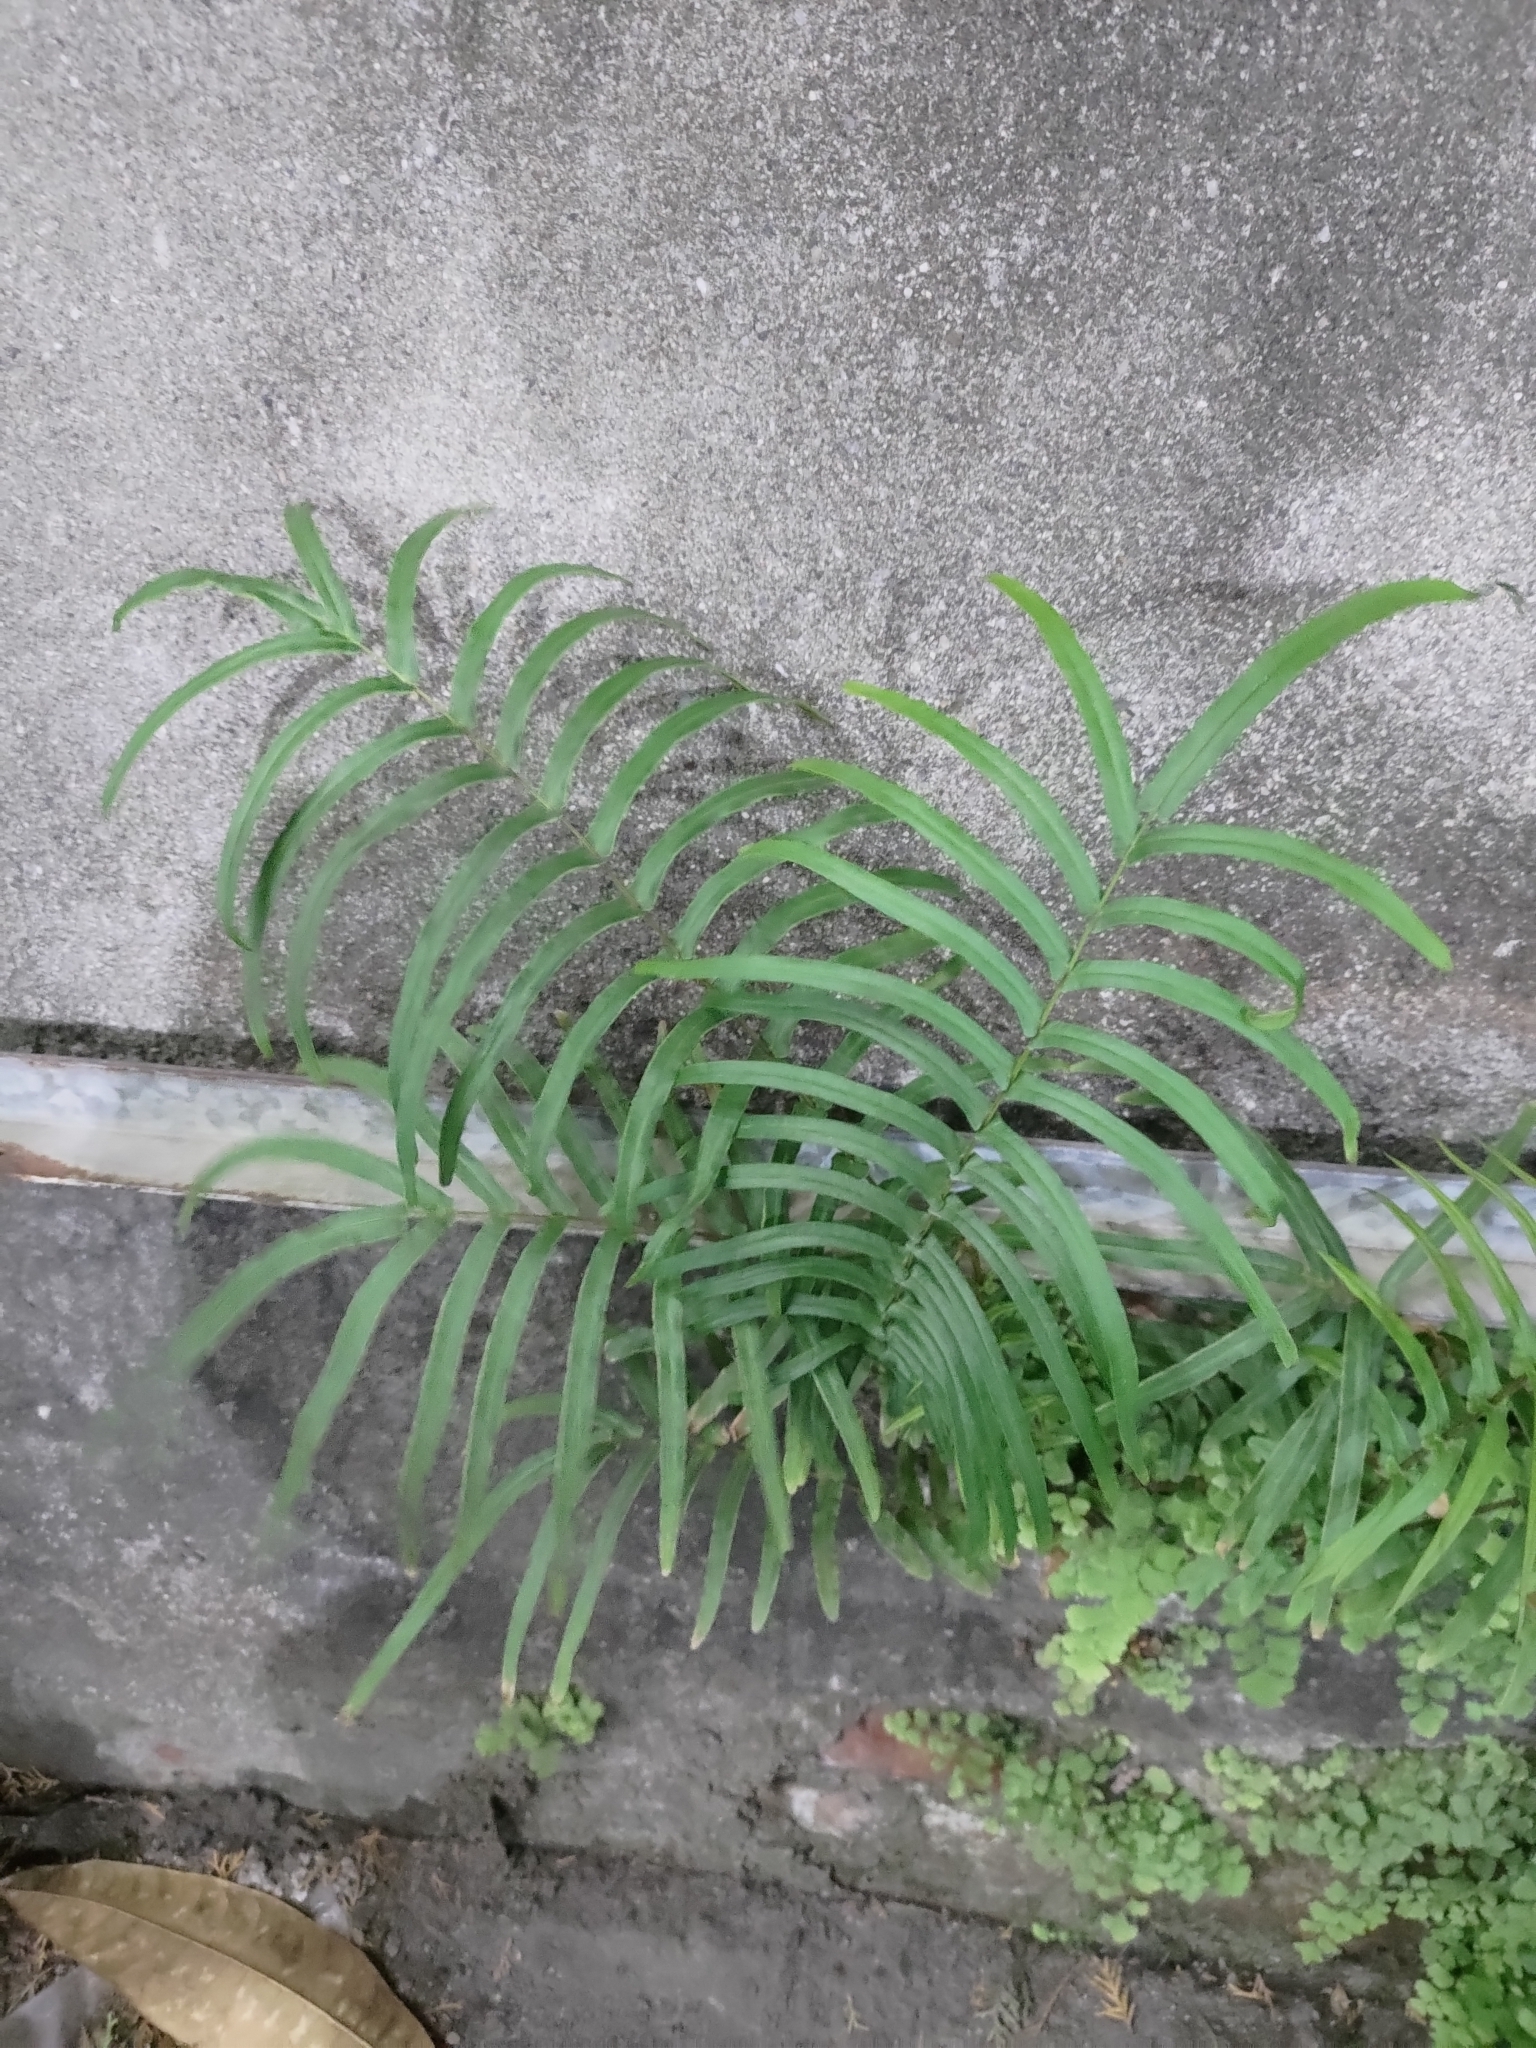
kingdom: Plantae
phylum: Tracheophyta
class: Polypodiopsida
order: Polypodiales
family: Pteridaceae
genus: Pteris
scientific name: Pteris vittata
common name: Ladder brake
